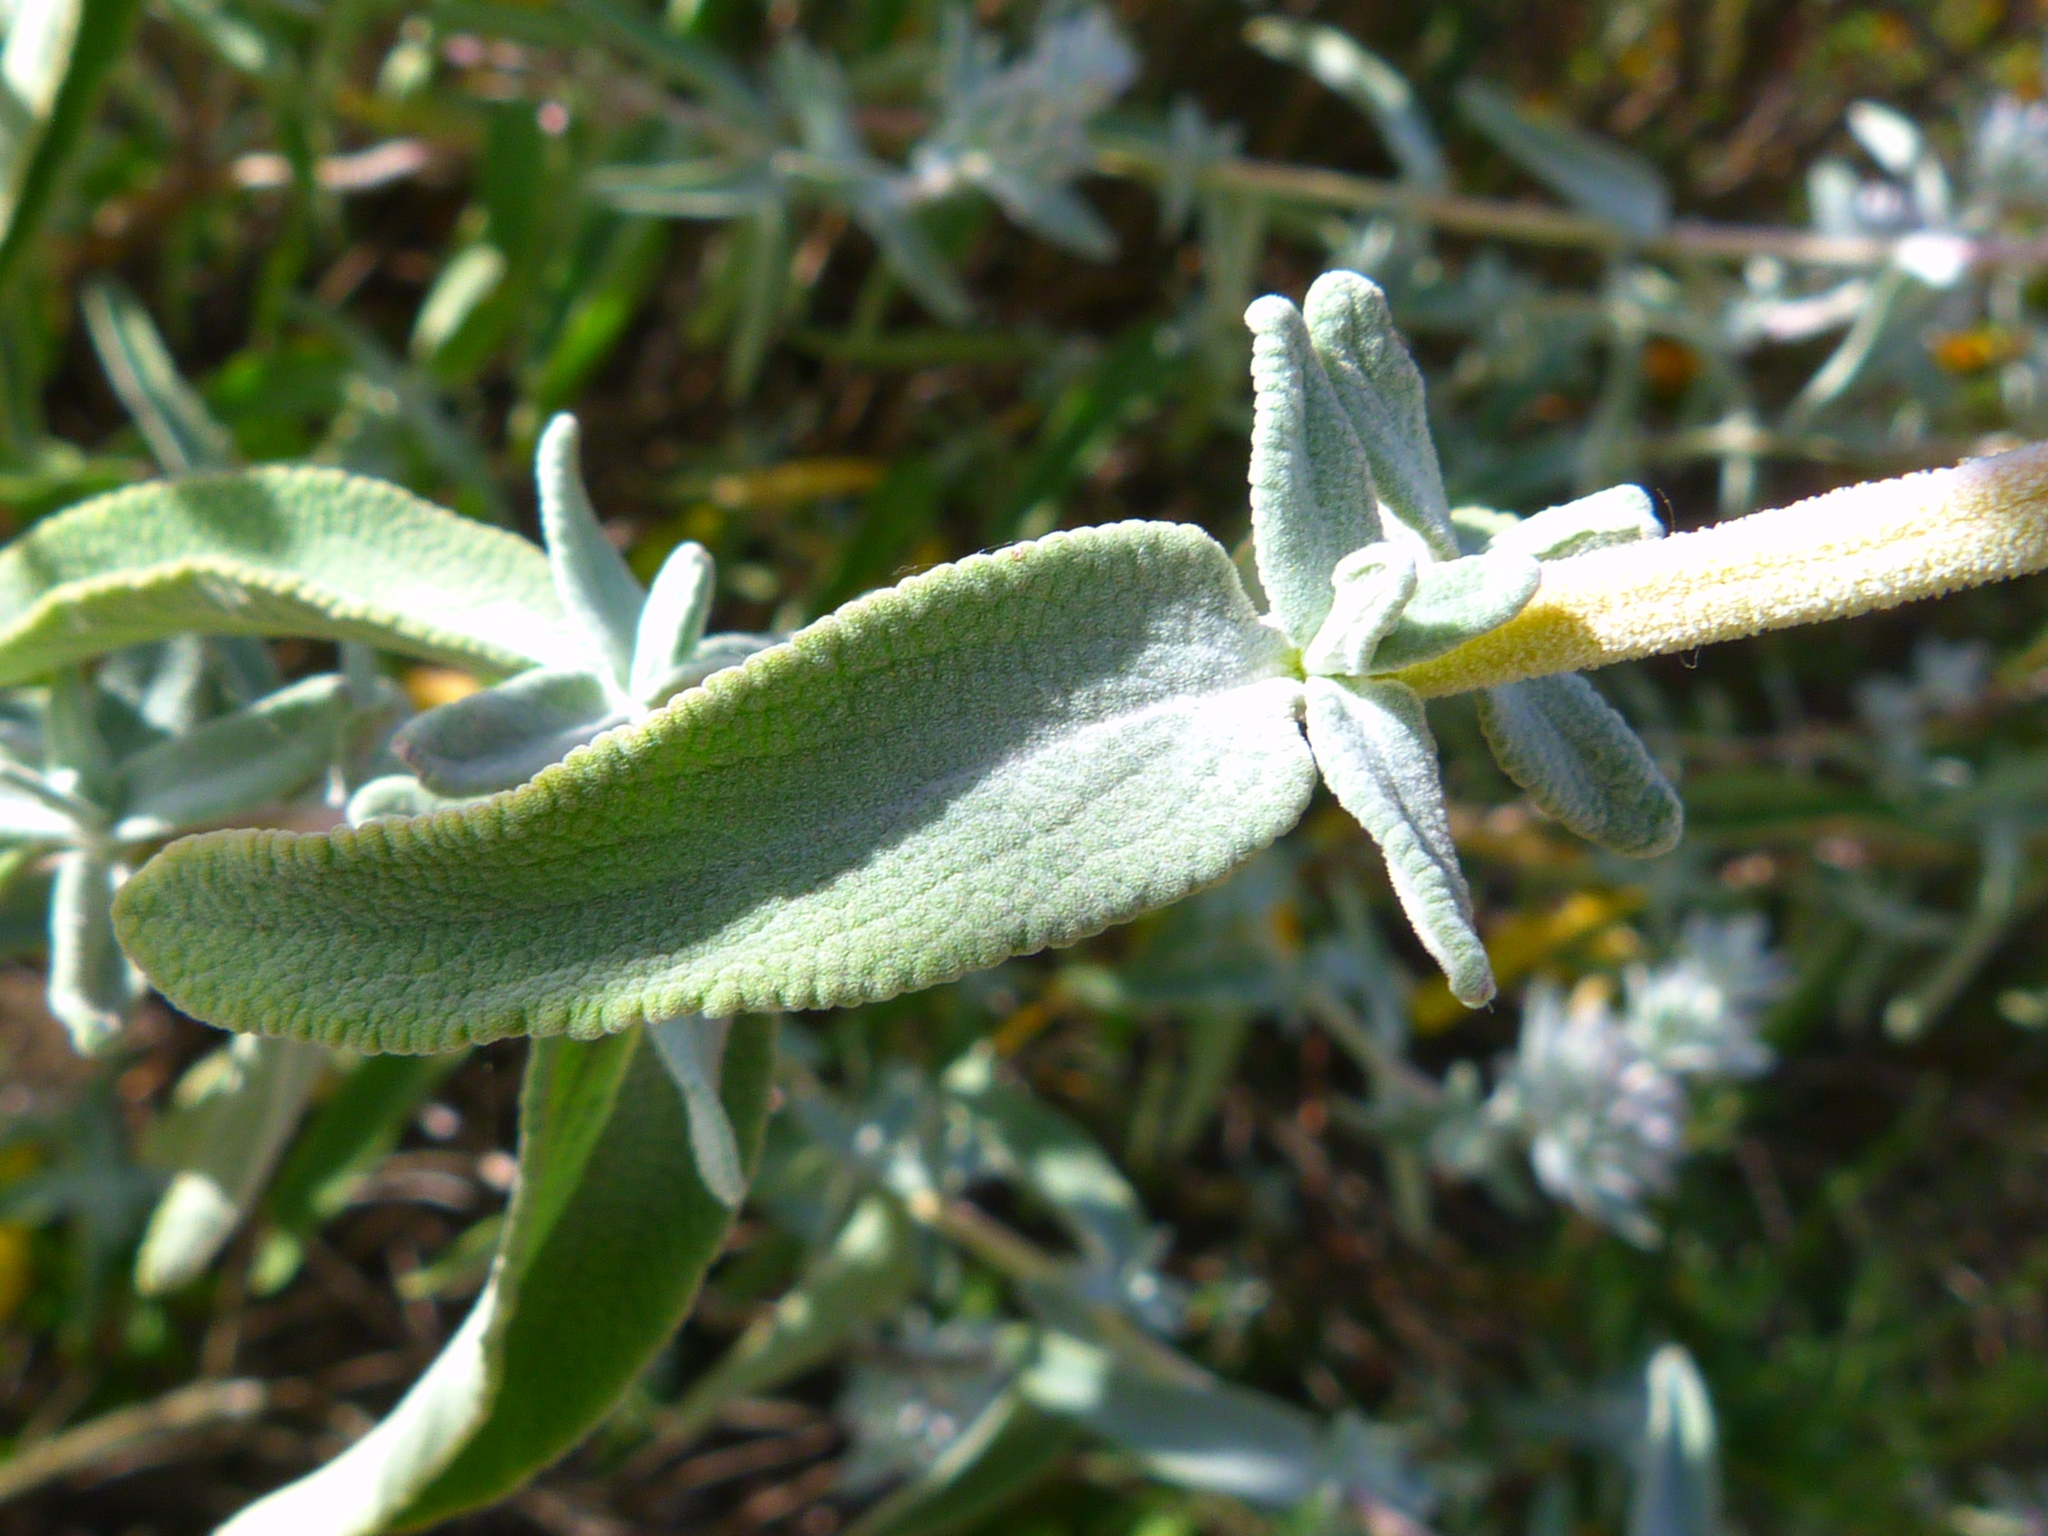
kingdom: Plantae
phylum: Tracheophyta
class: Magnoliopsida
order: Lamiales
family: Lamiaceae
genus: Salvia
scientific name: Salvia leucophylla
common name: Purple sage
